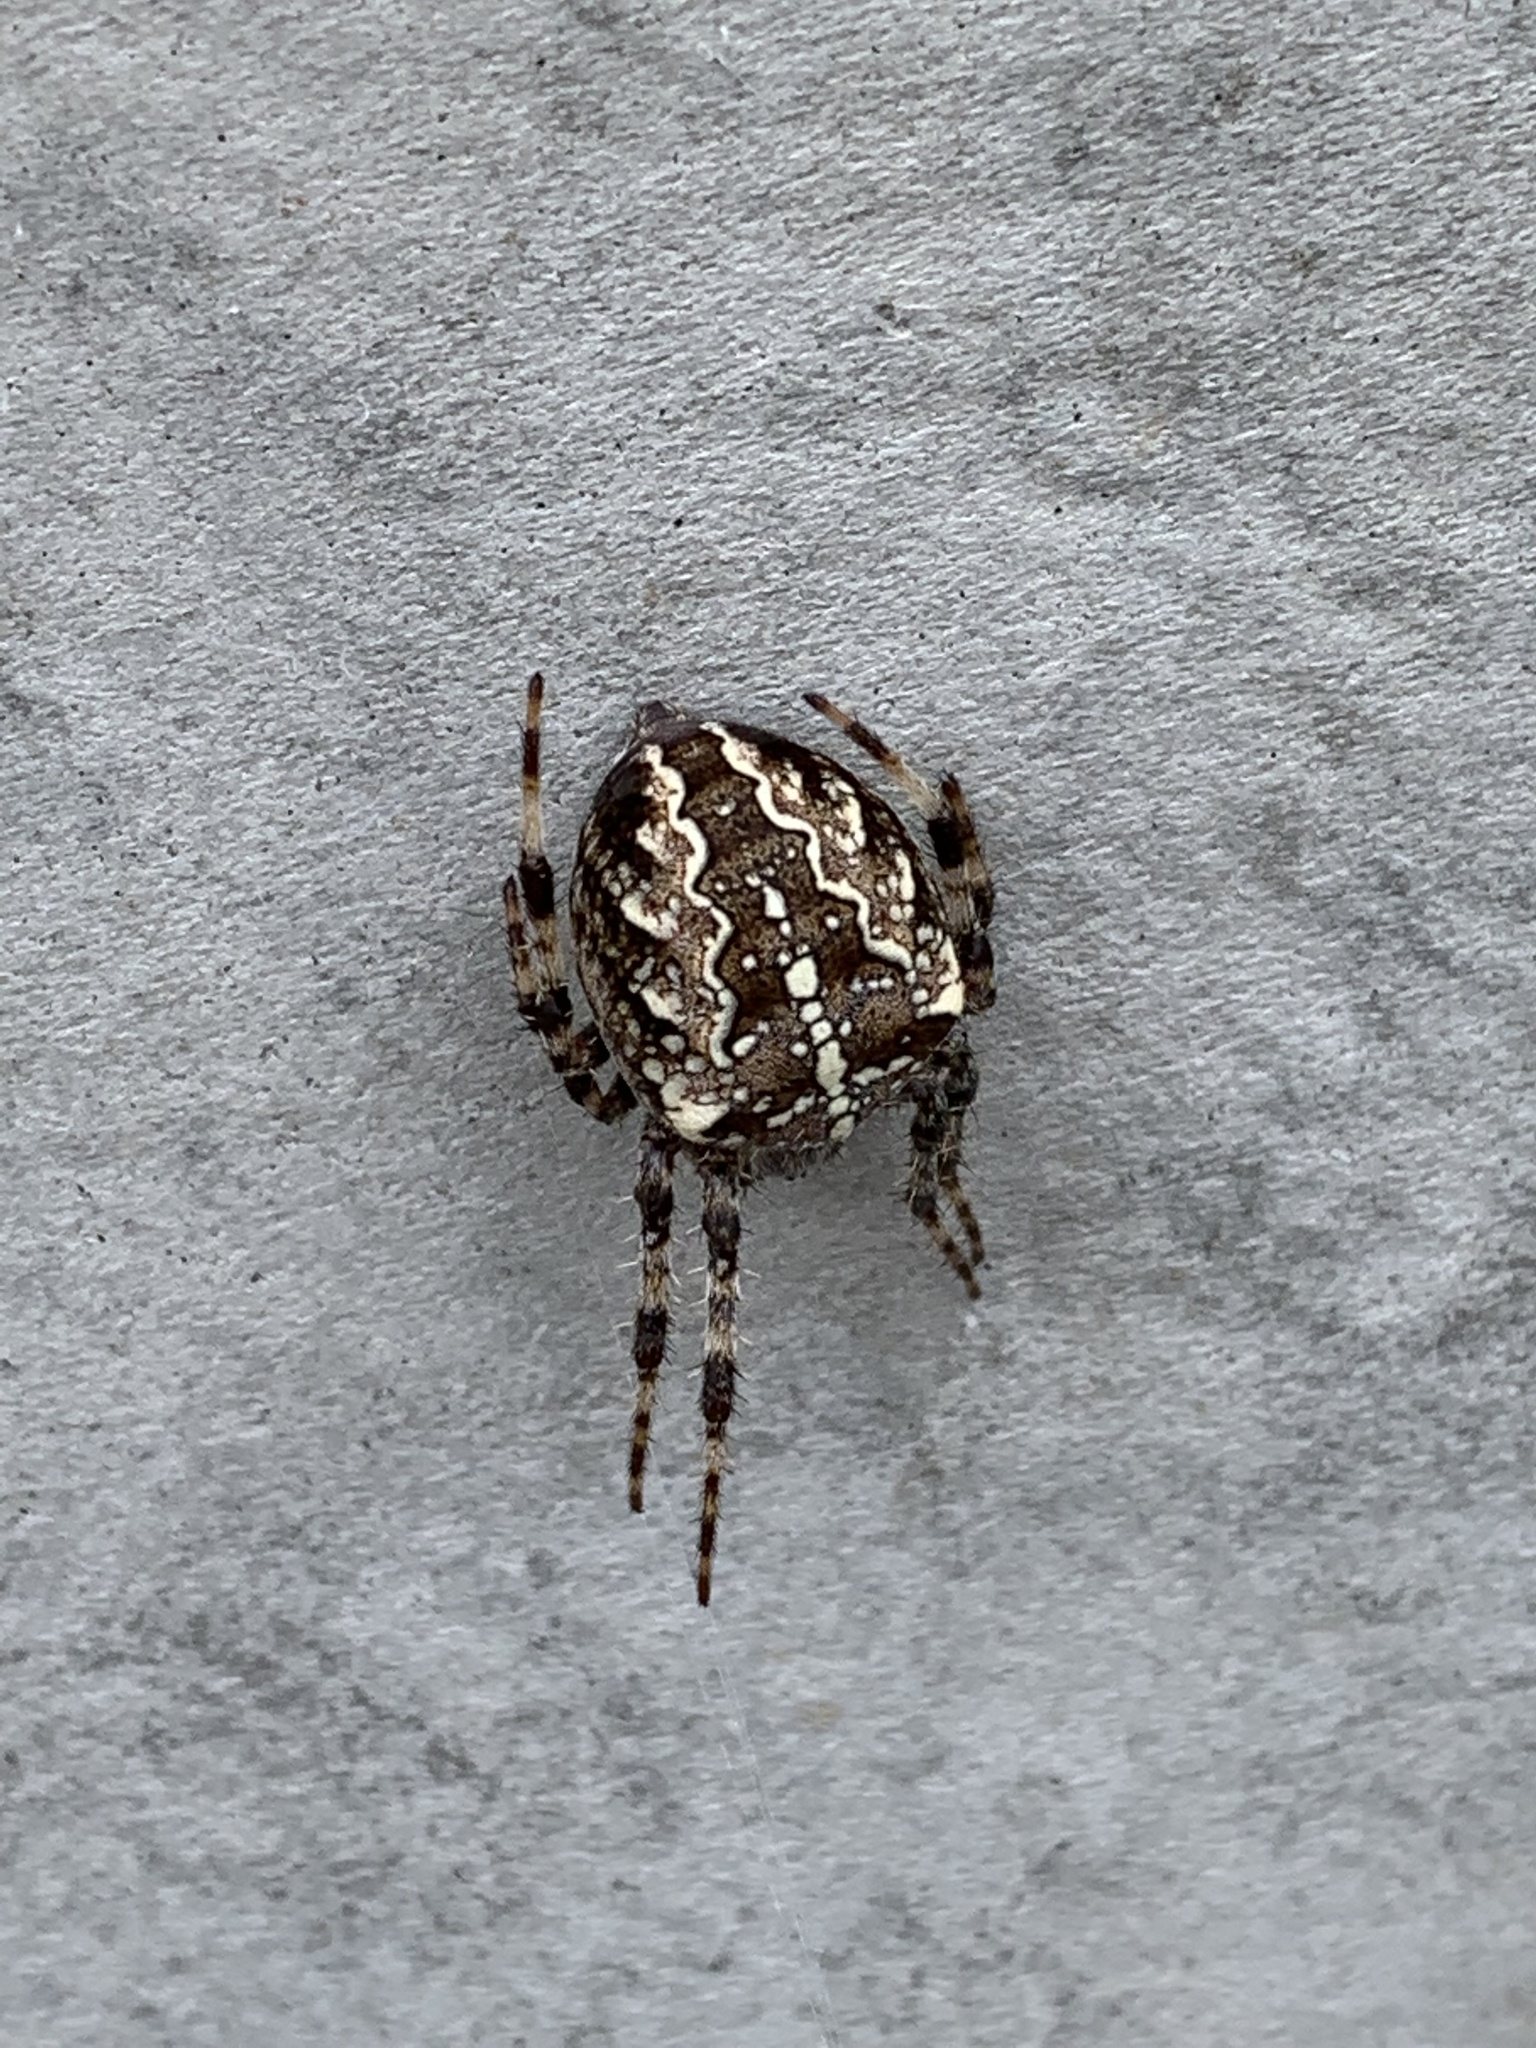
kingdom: Animalia
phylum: Arthropoda
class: Arachnida
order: Araneae
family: Araneidae
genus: Araneus
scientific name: Araneus diadematus
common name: Cross orbweaver
